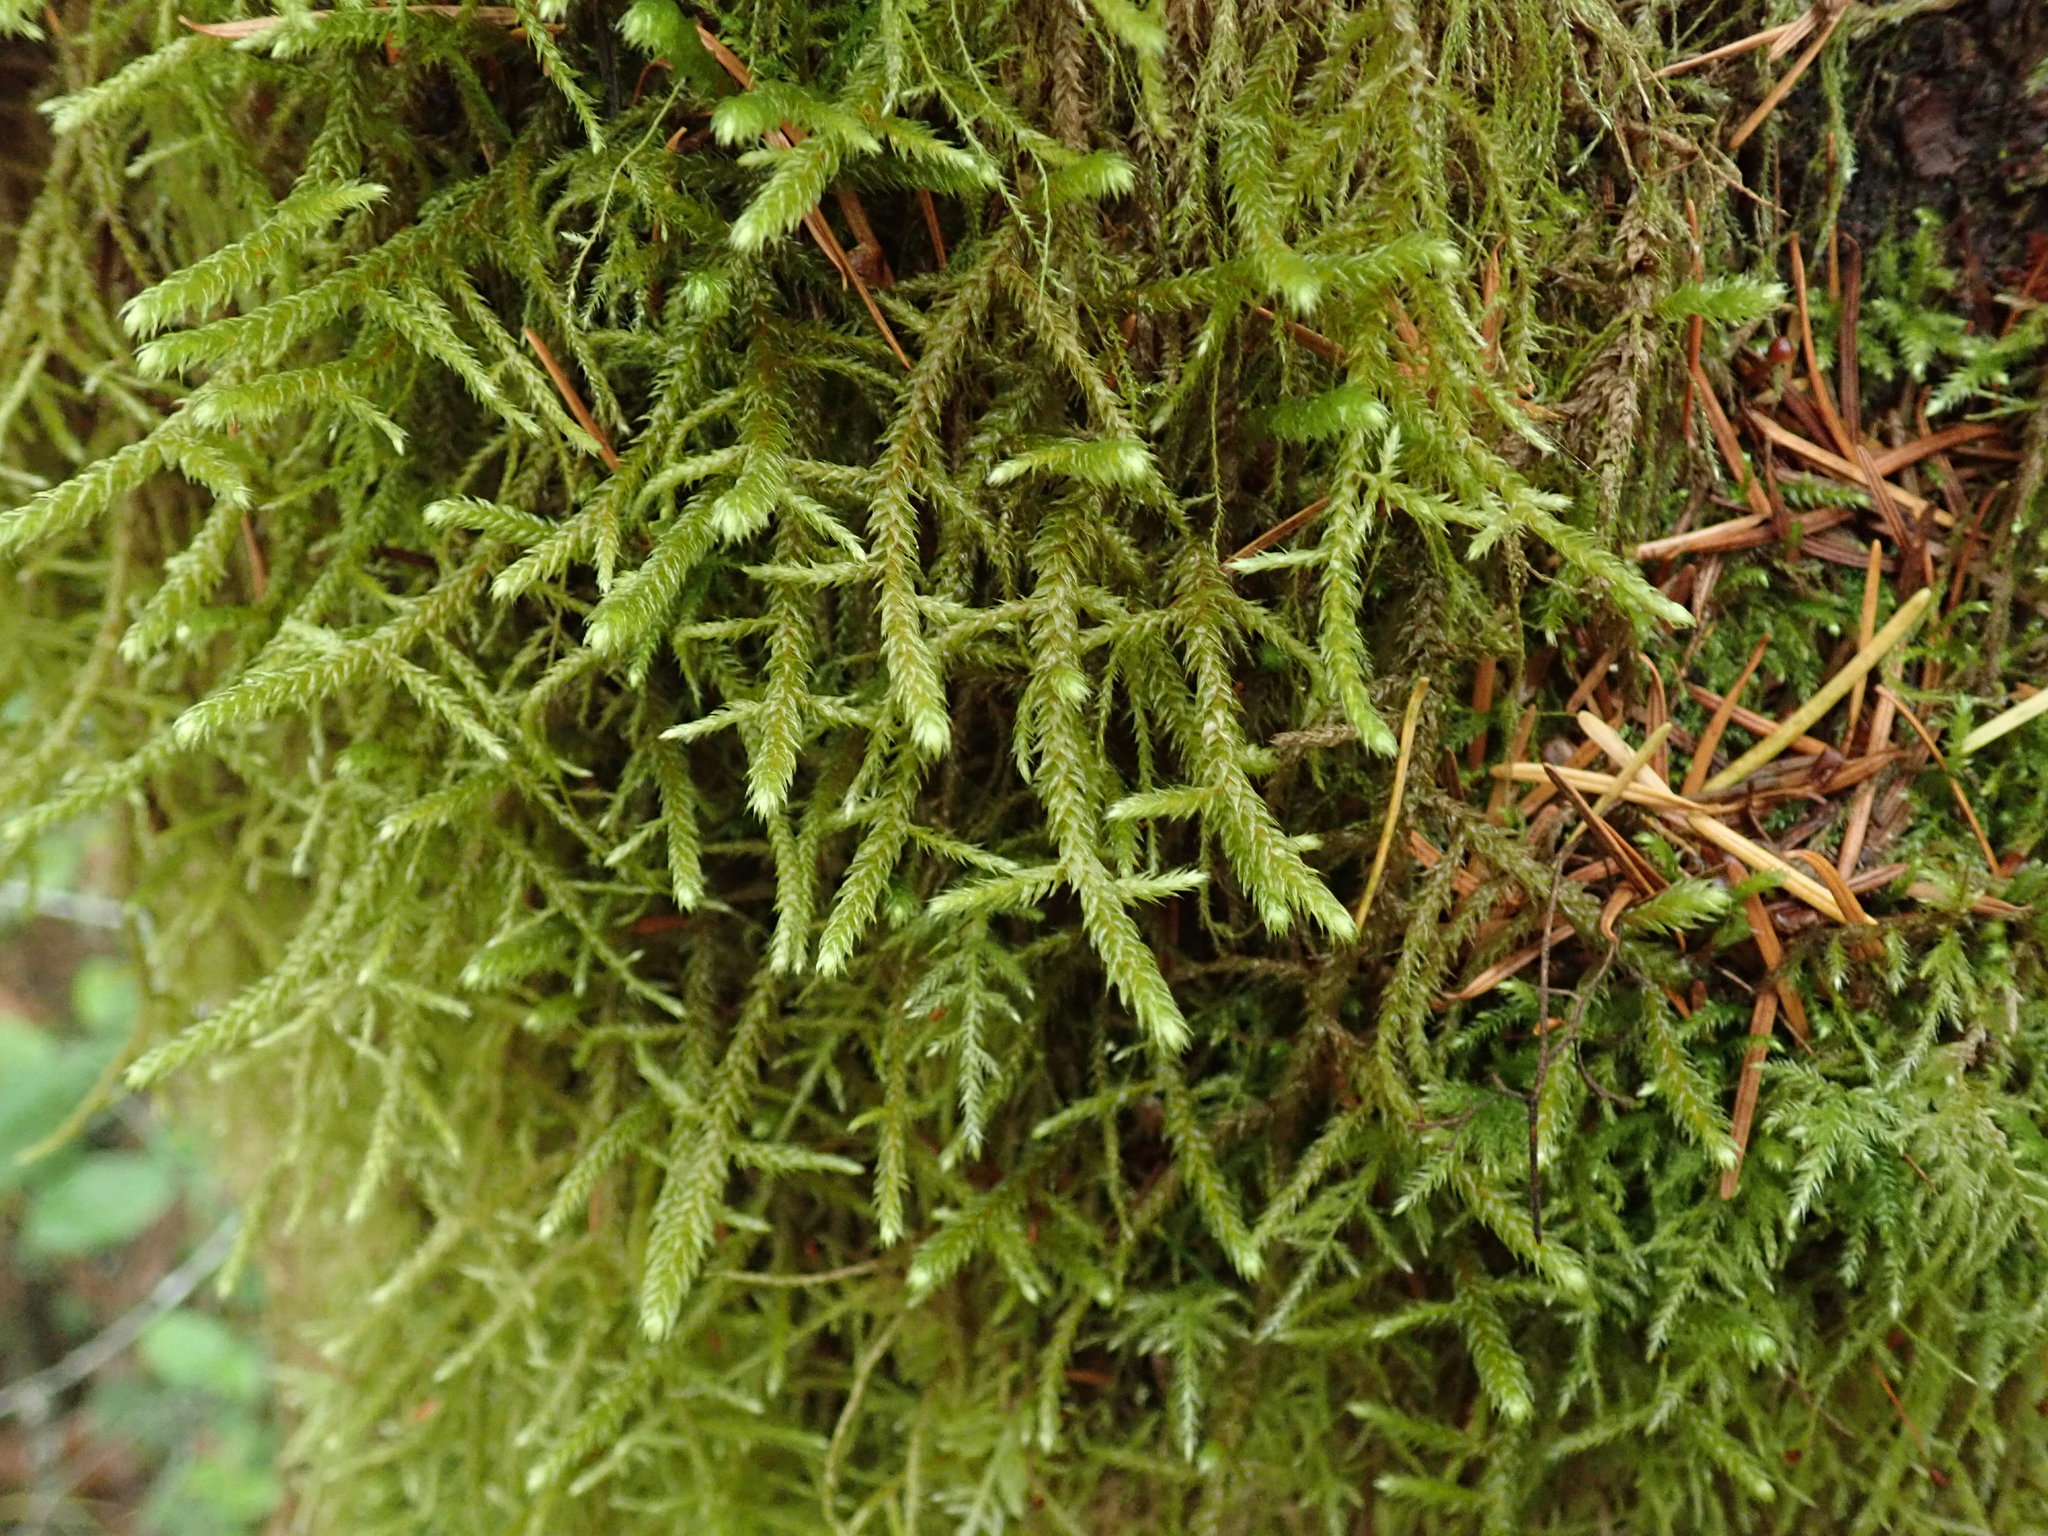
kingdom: Plantae
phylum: Bryophyta
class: Bryopsida
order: Hypnales
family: Antitrichiaceae
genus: Antitrichia
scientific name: Antitrichia curtipendula
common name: Pendulous wing-moss
